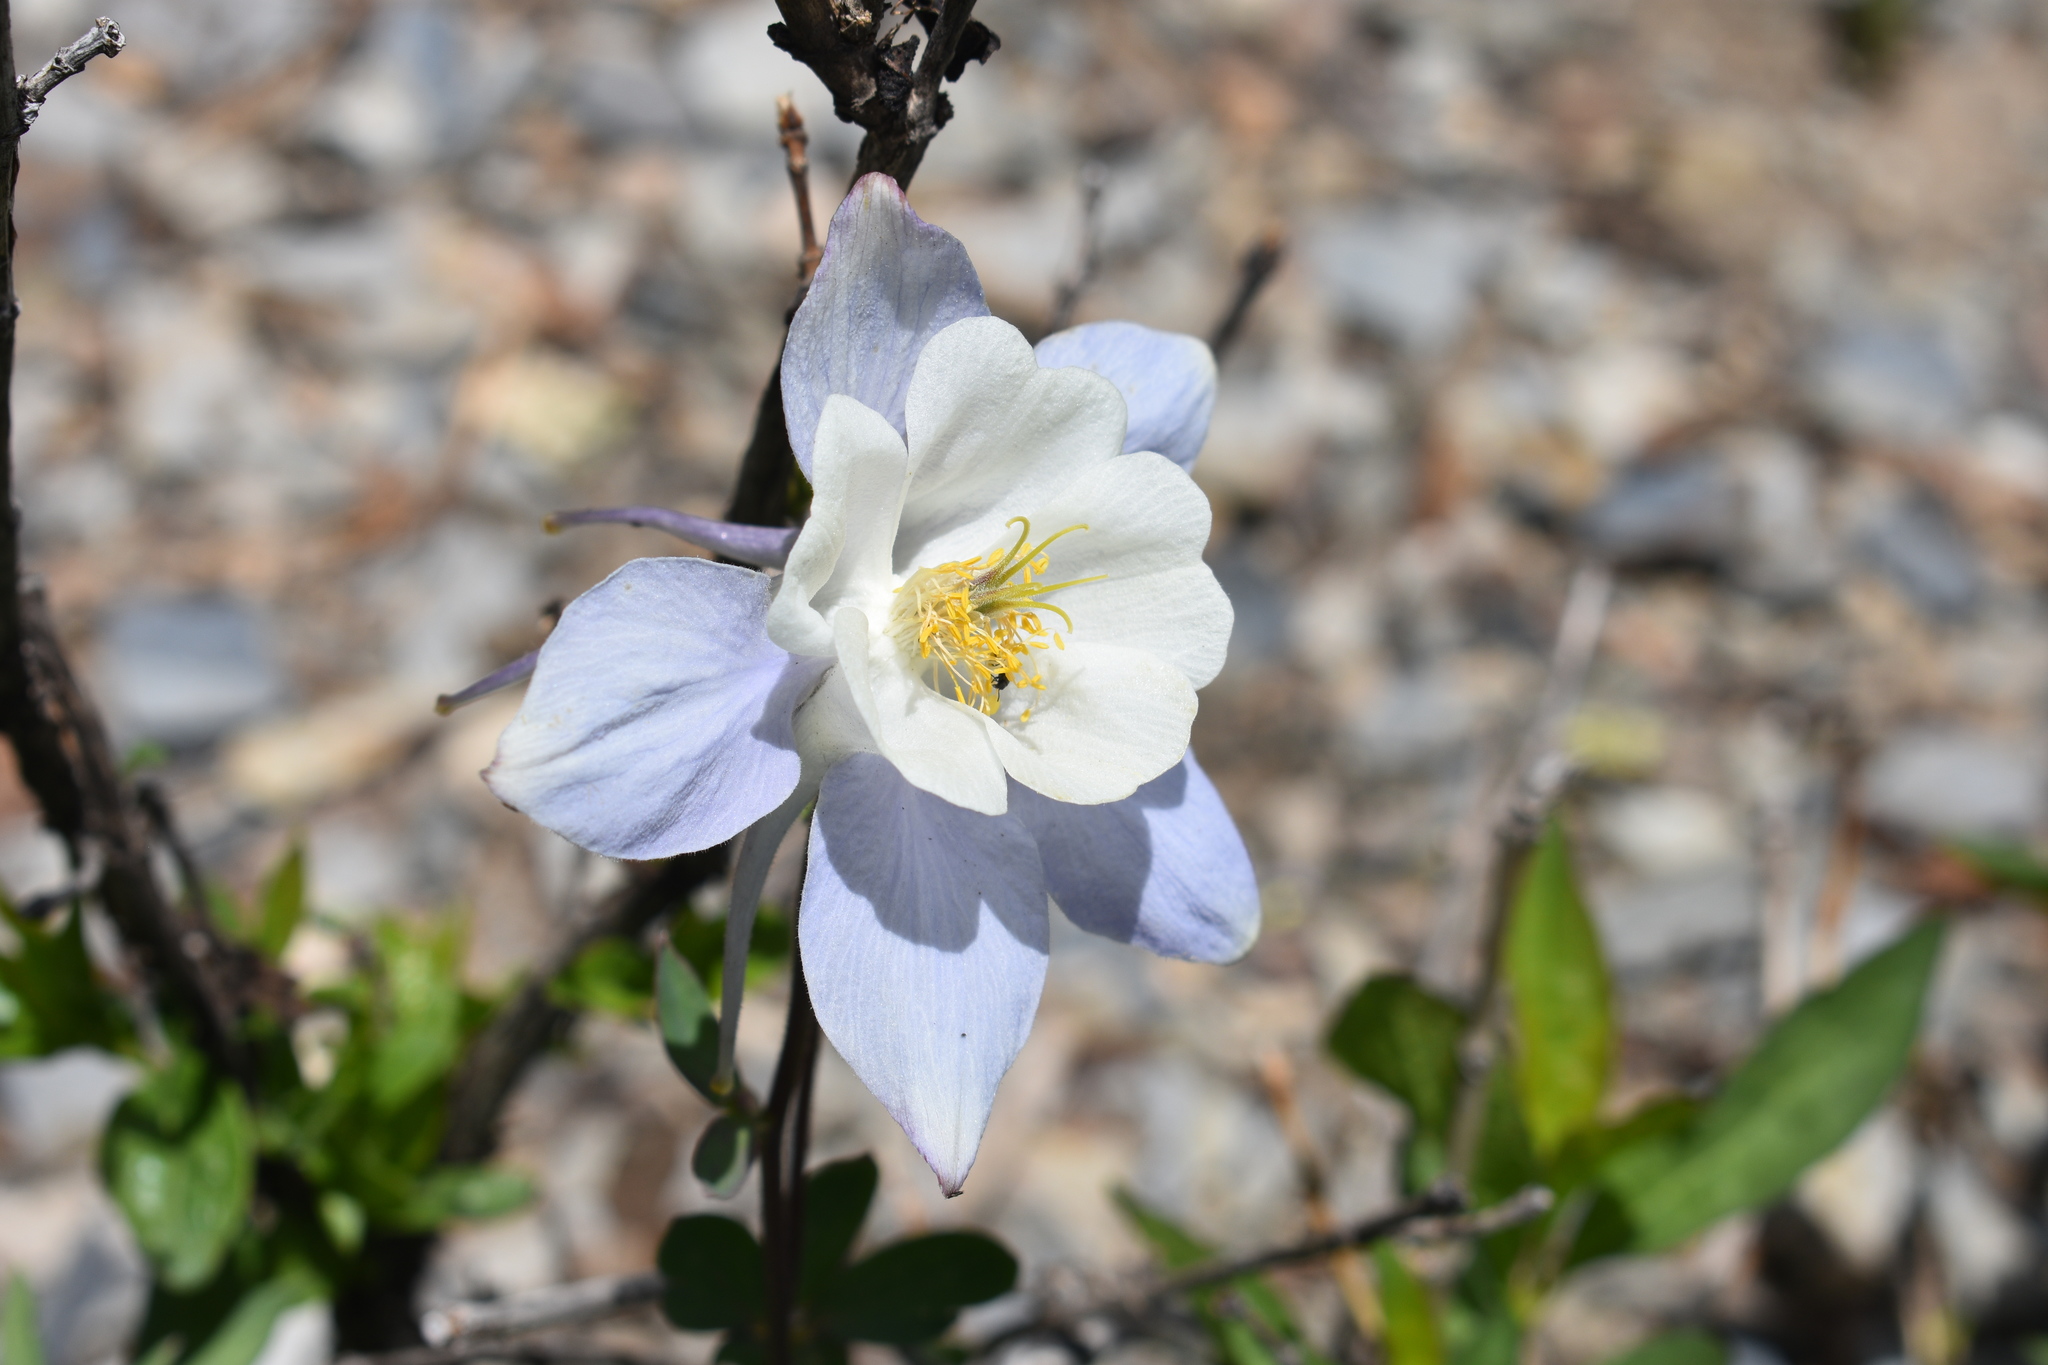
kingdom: Plantae
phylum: Tracheophyta
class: Magnoliopsida
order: Ranunculales
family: Ranunculaceae
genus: Aquilegia
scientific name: Aquilegia coerulea
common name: Rocky mountain columbine
